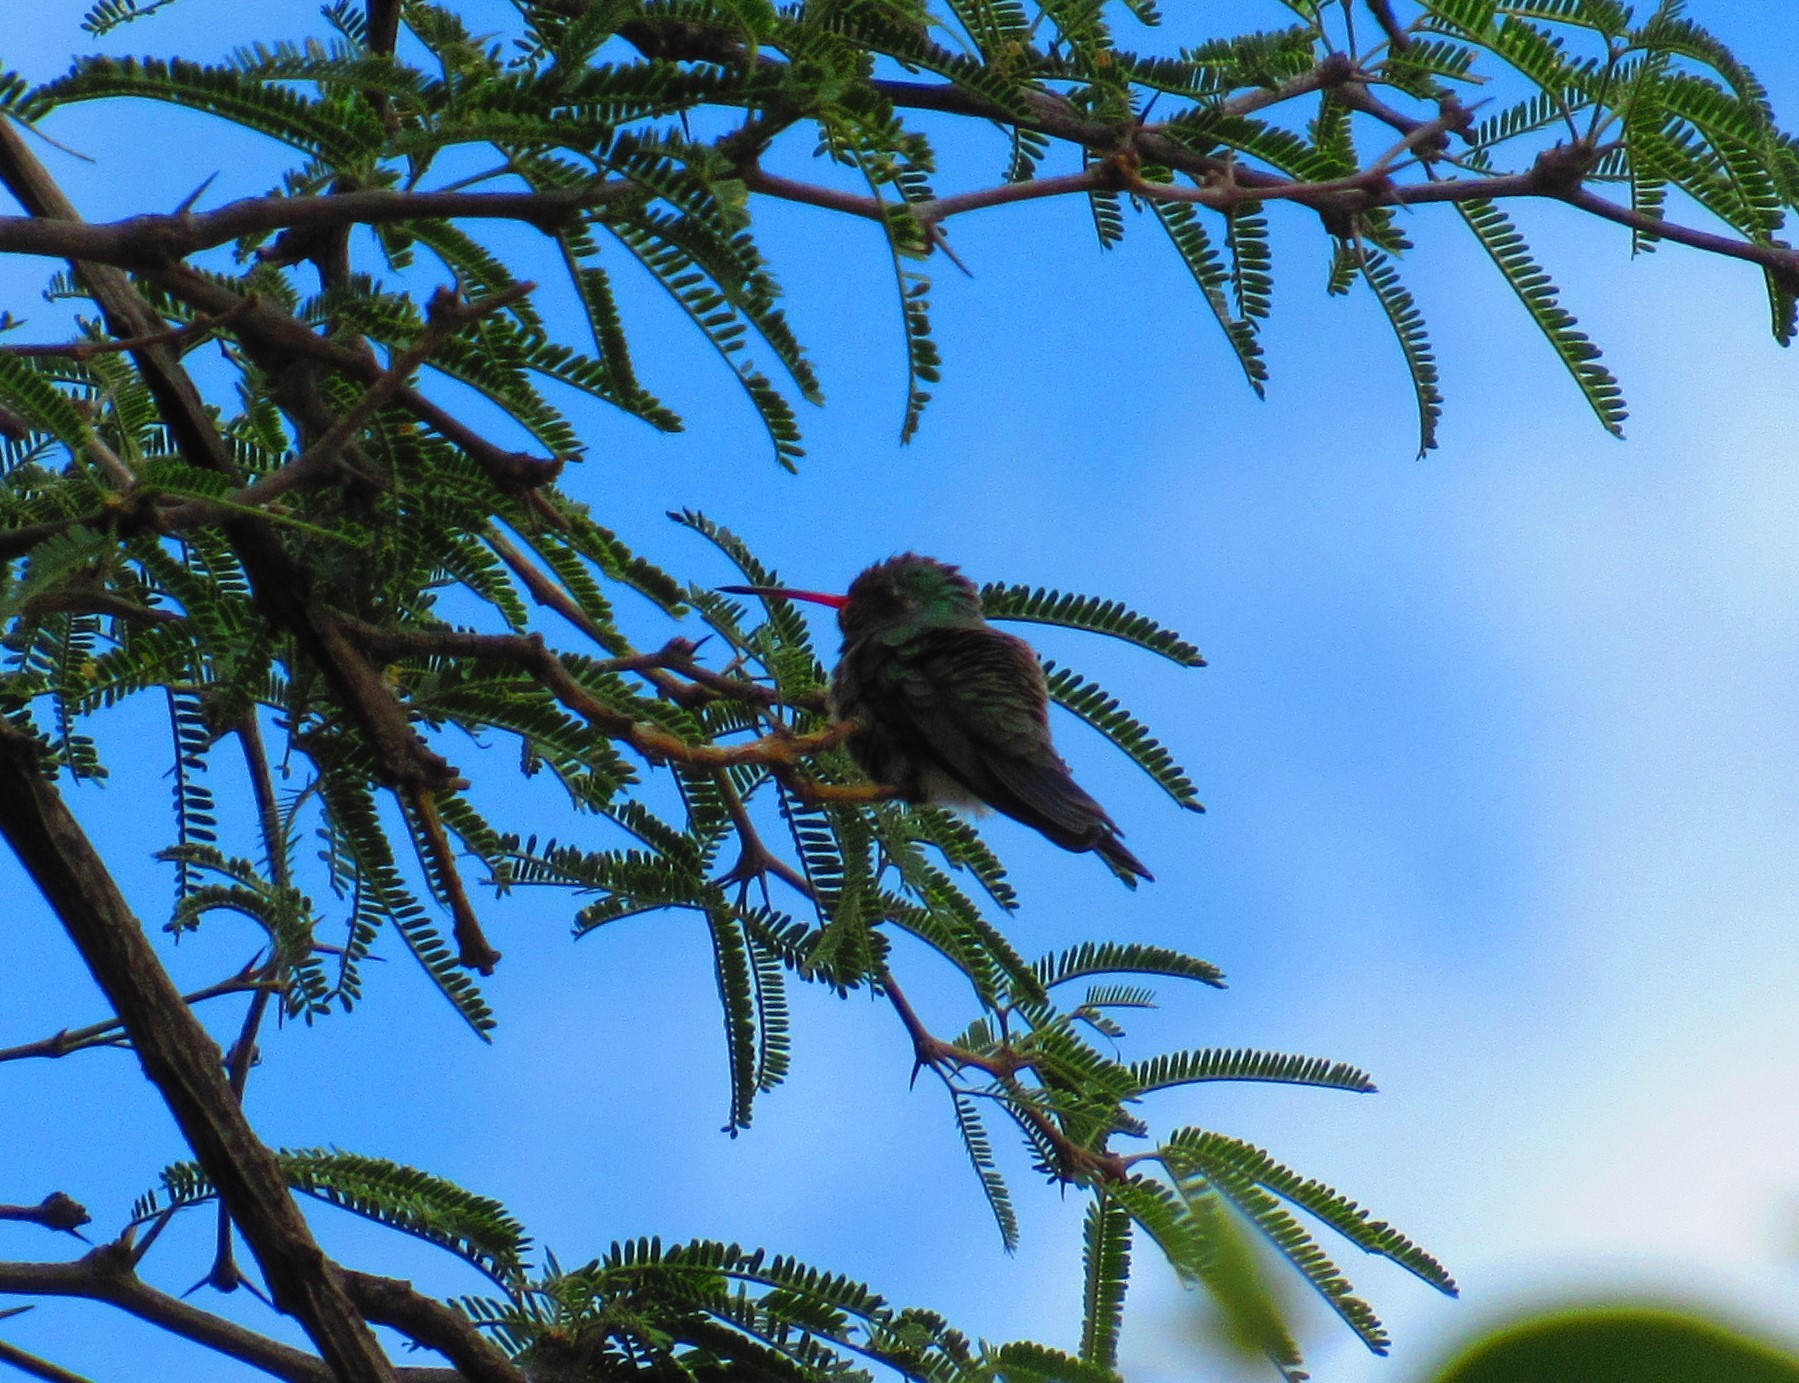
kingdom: Animalia
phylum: Chordata
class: Aves
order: Apodiformes
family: Trochilidae
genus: Cynanthus
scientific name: Cynanthus latirostris
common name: Broad-billed hummingbird
